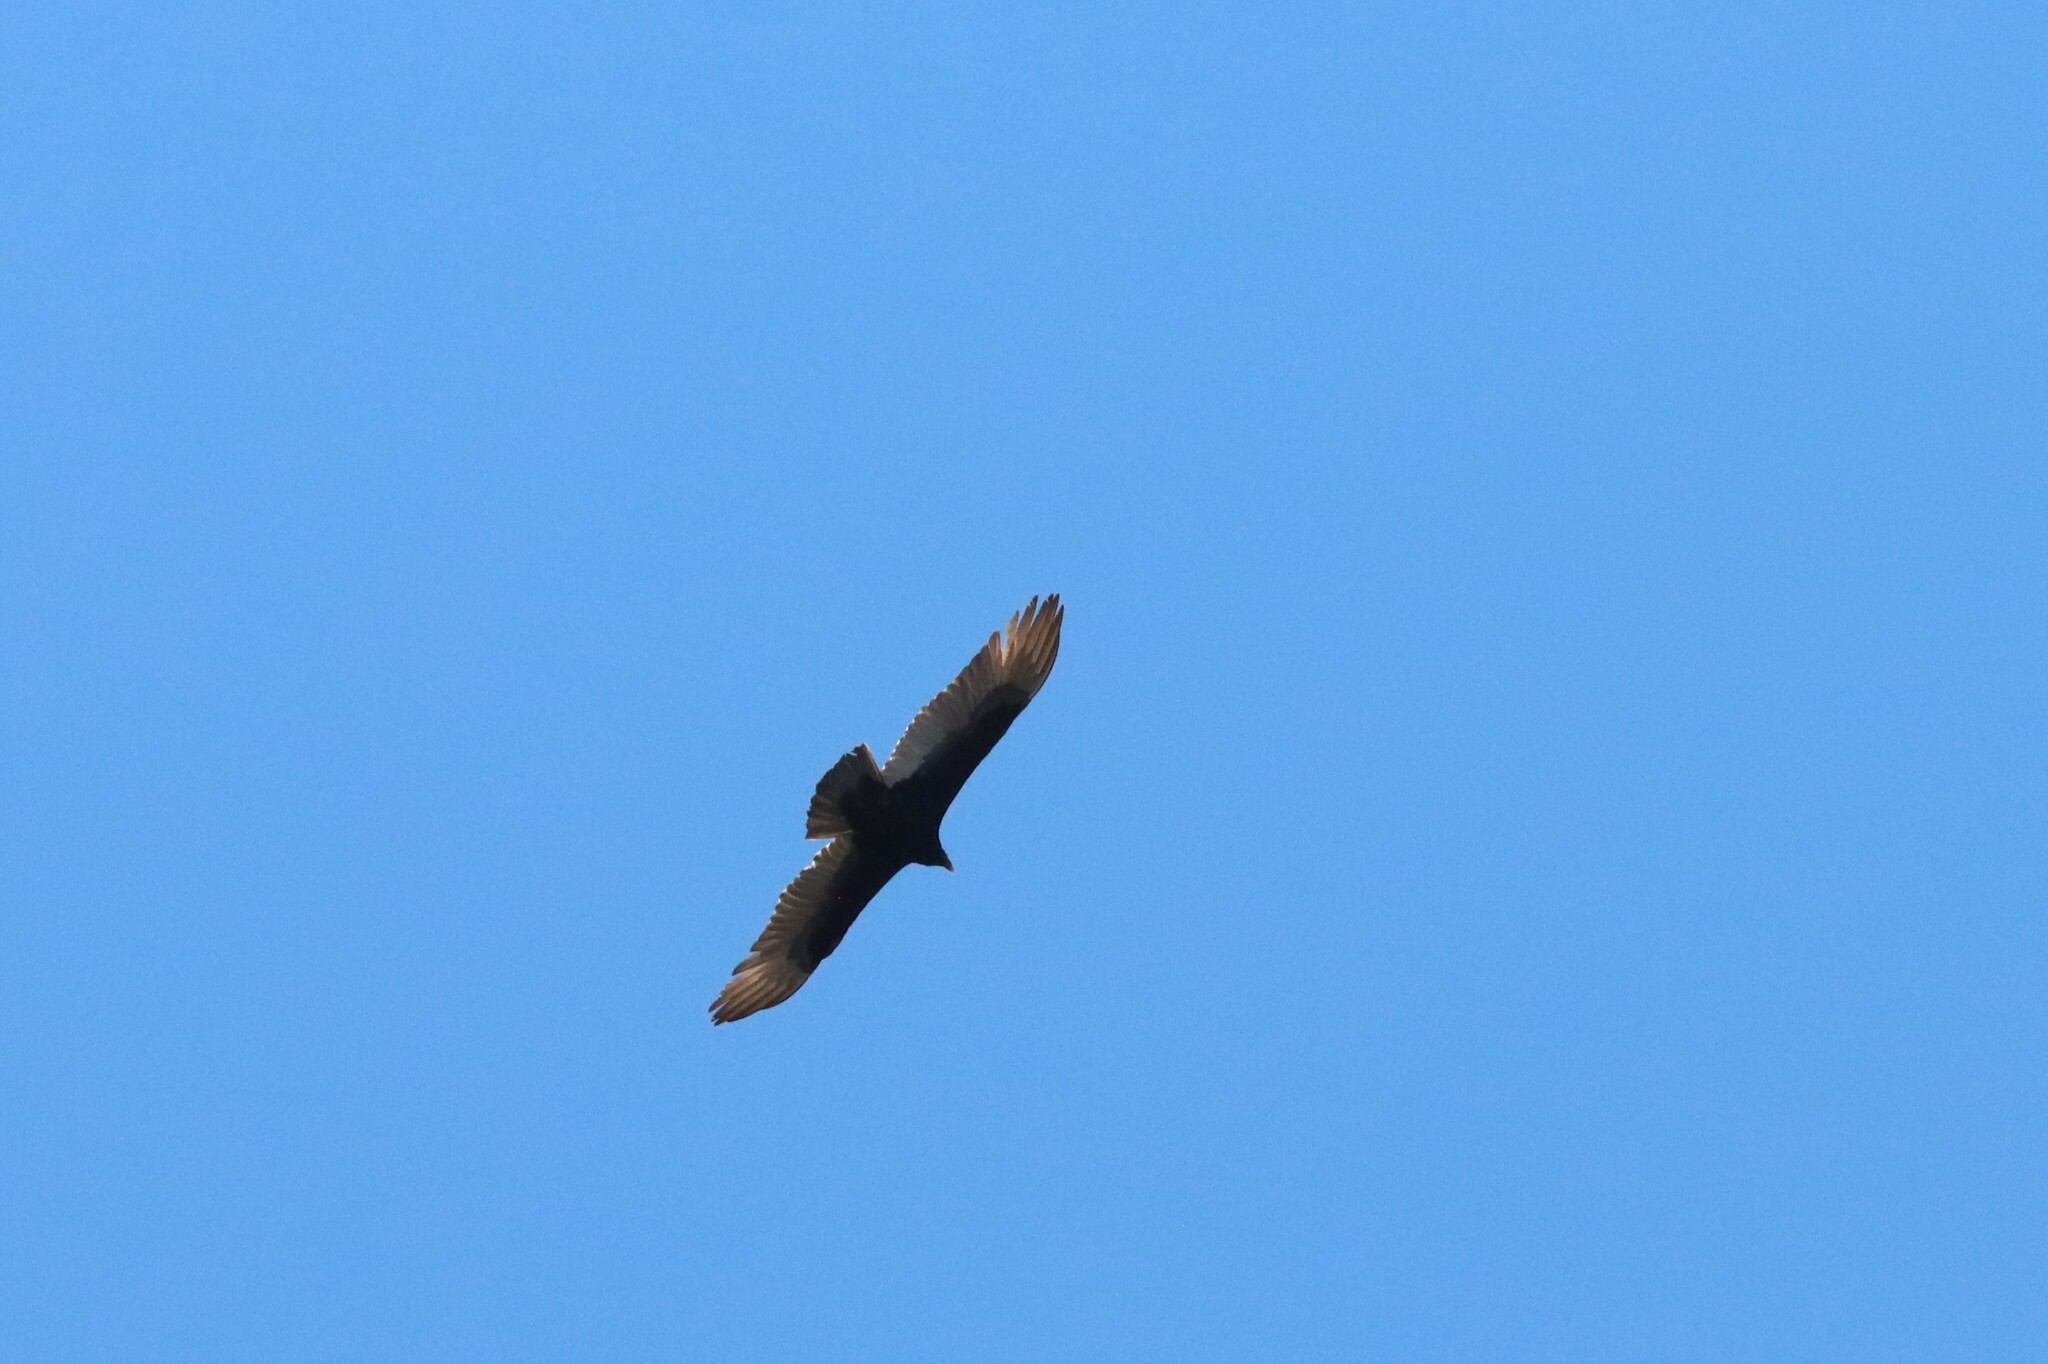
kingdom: Animalia
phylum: Chordata
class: Aves
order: Accipitriformes
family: Cathartidae
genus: Cathartes
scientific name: Cathartes aura
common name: Turkey vulture
